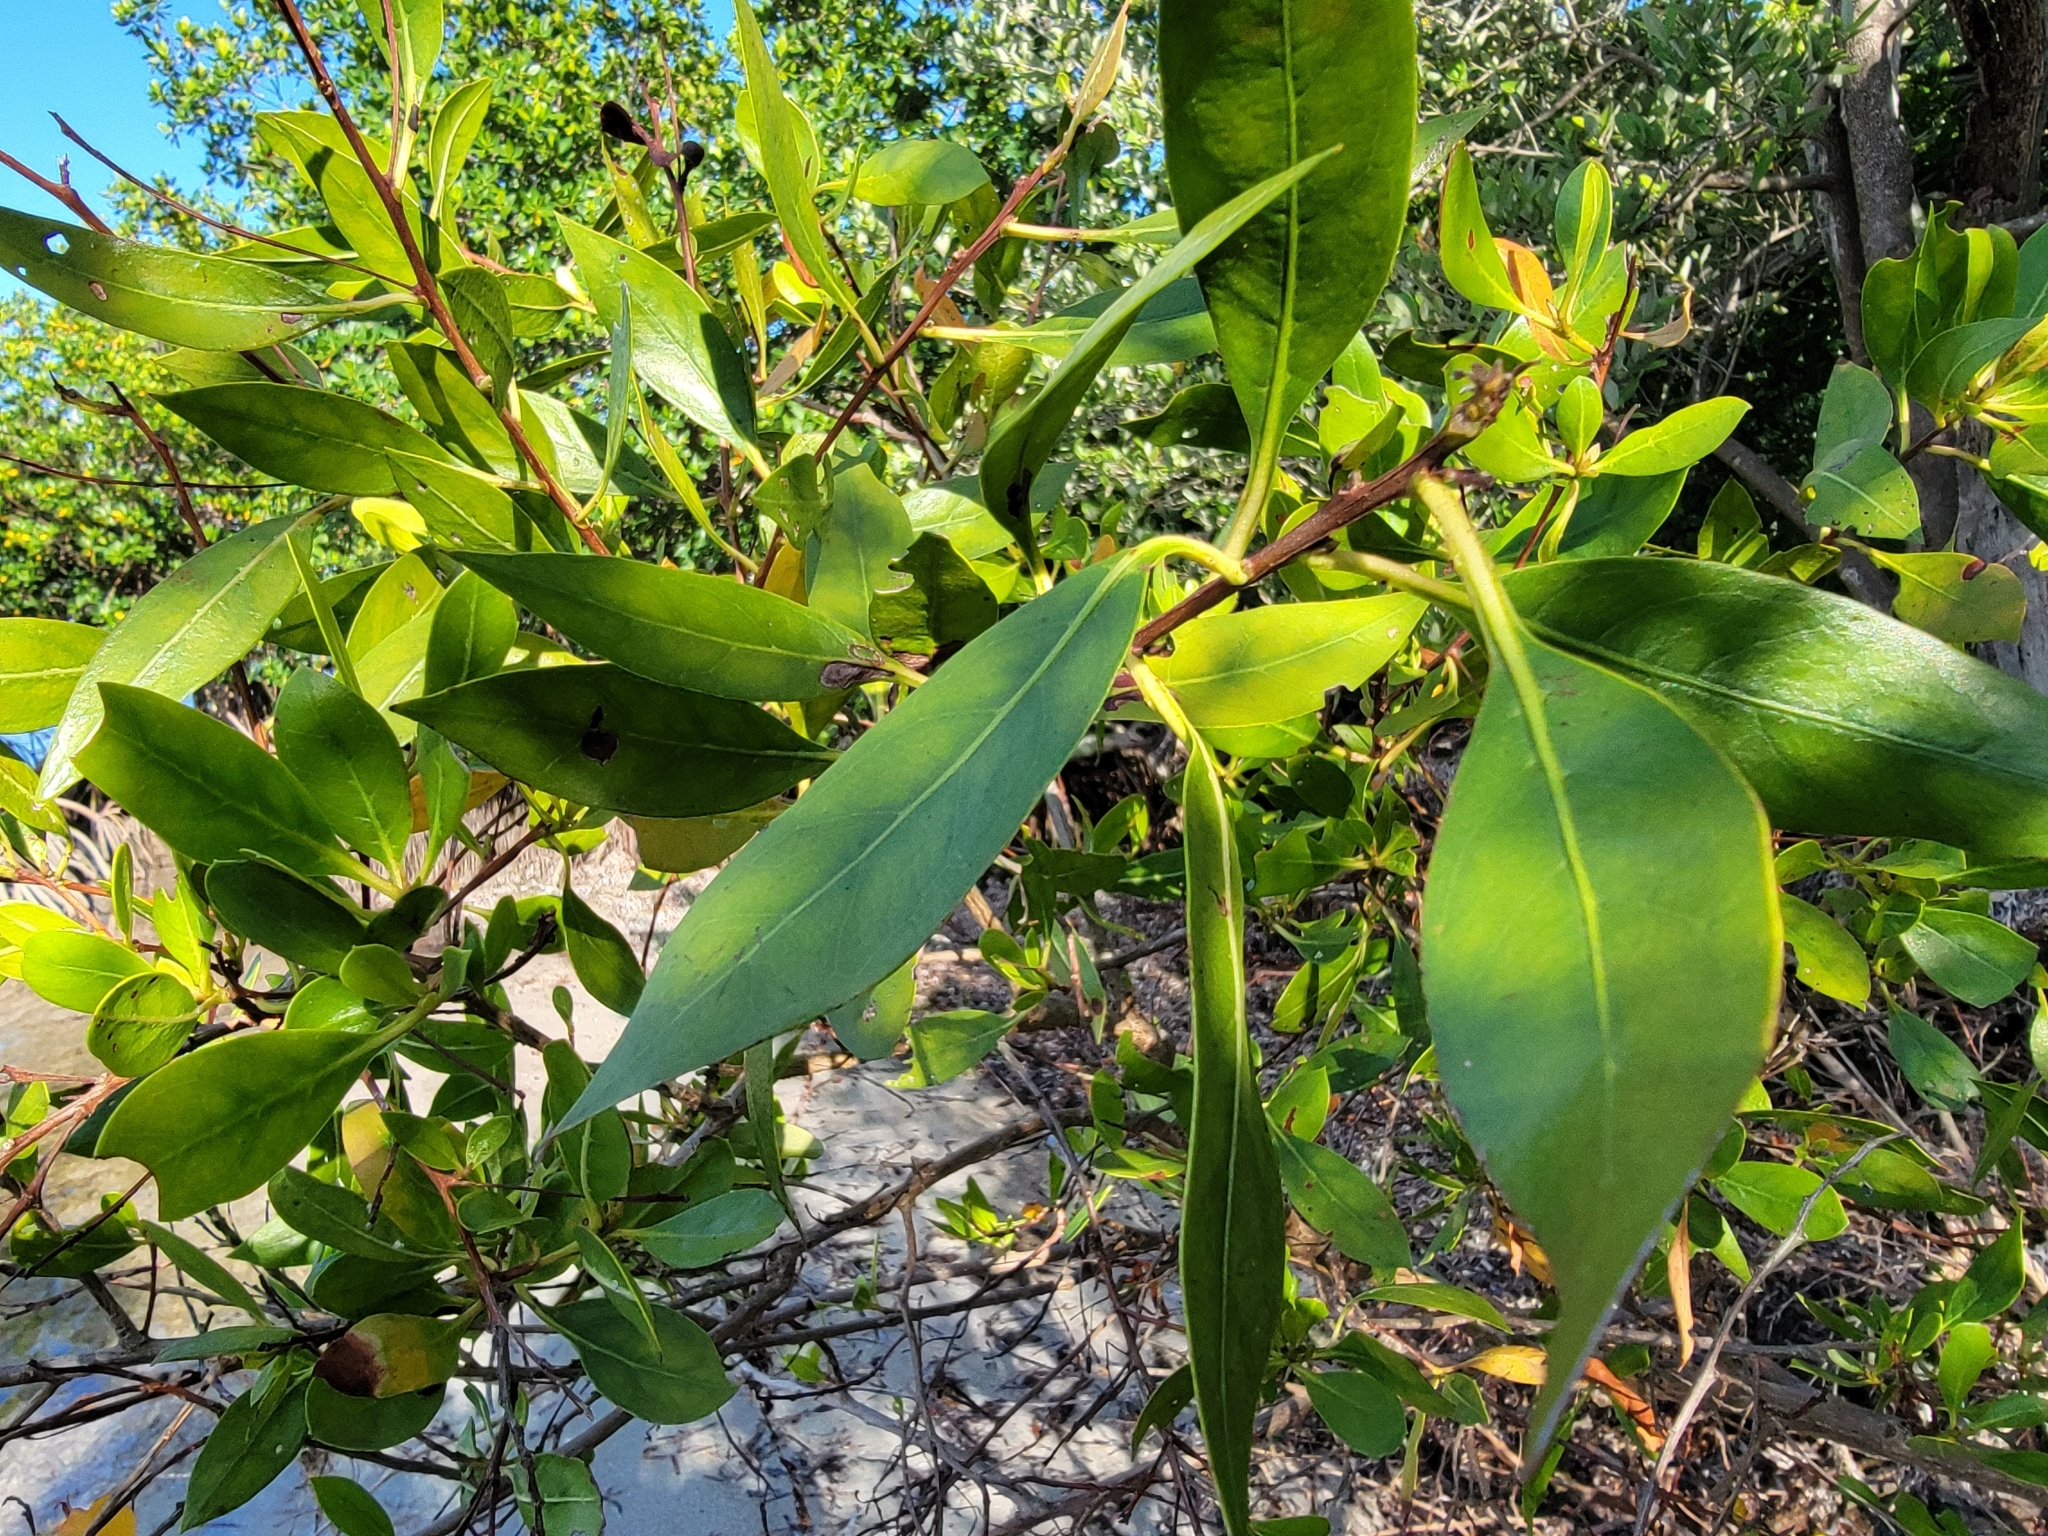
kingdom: Plantae
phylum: Tracheophyta
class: Magnoliopsida
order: Myrtales
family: Combretaceae
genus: Conocarpus
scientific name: Conocarpus erectus
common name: Button mangrove
